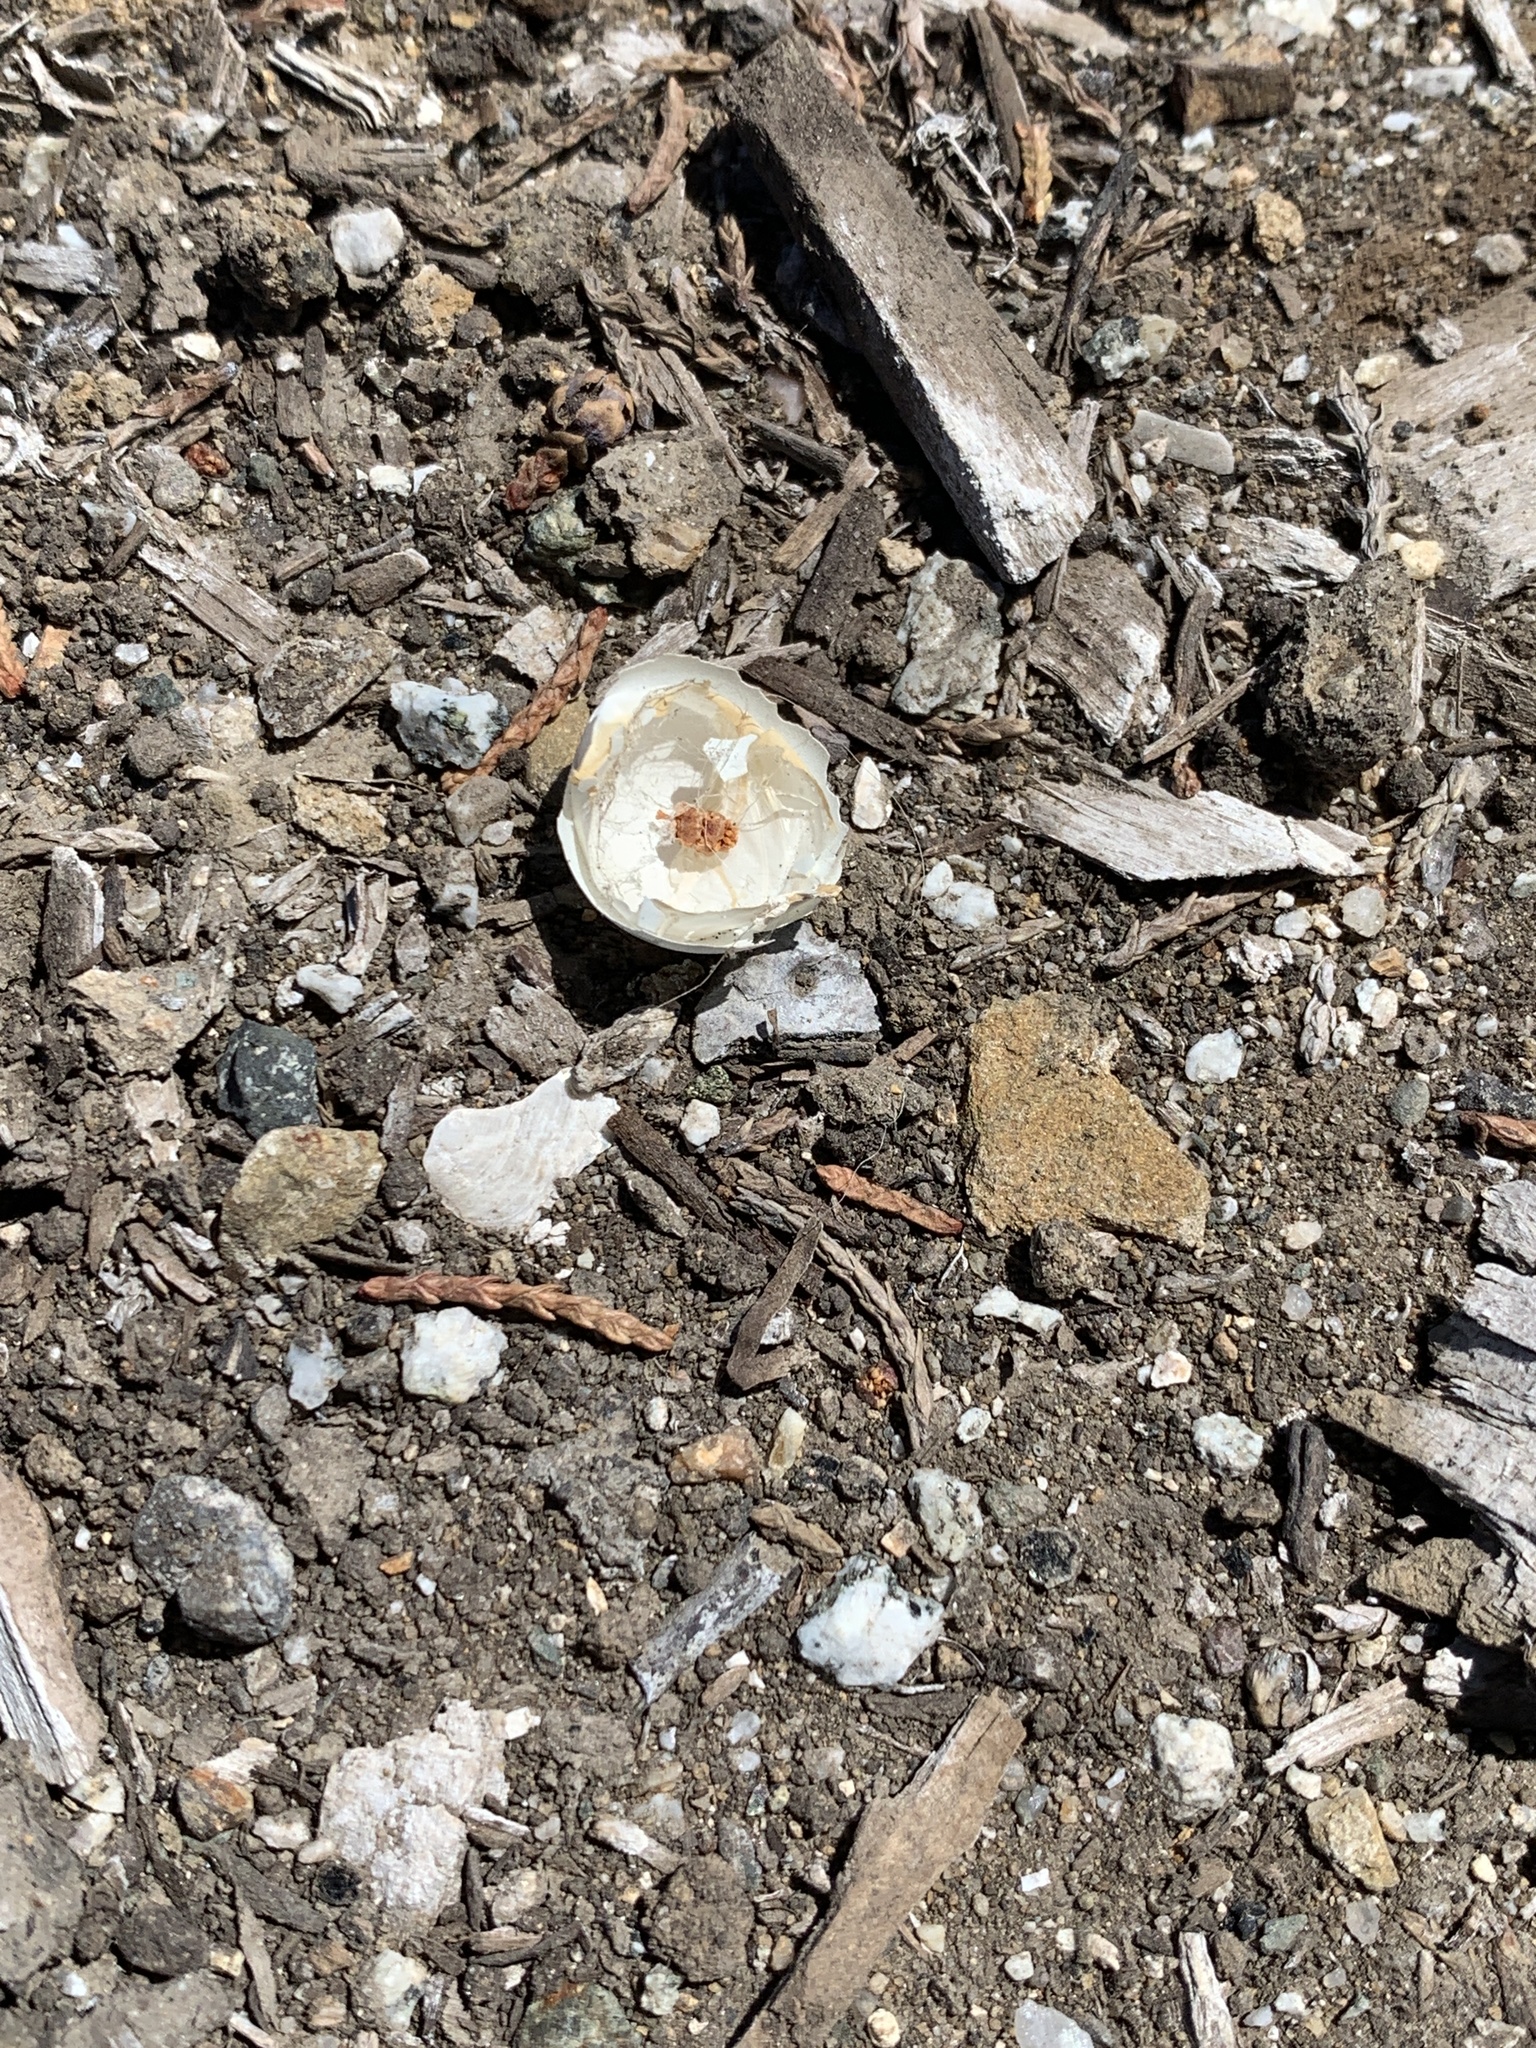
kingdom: Animalia
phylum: Chordata
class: Aves
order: Charadriiformes
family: Laridae
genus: Sternula
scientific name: Sternula antillarum
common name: Least tern
